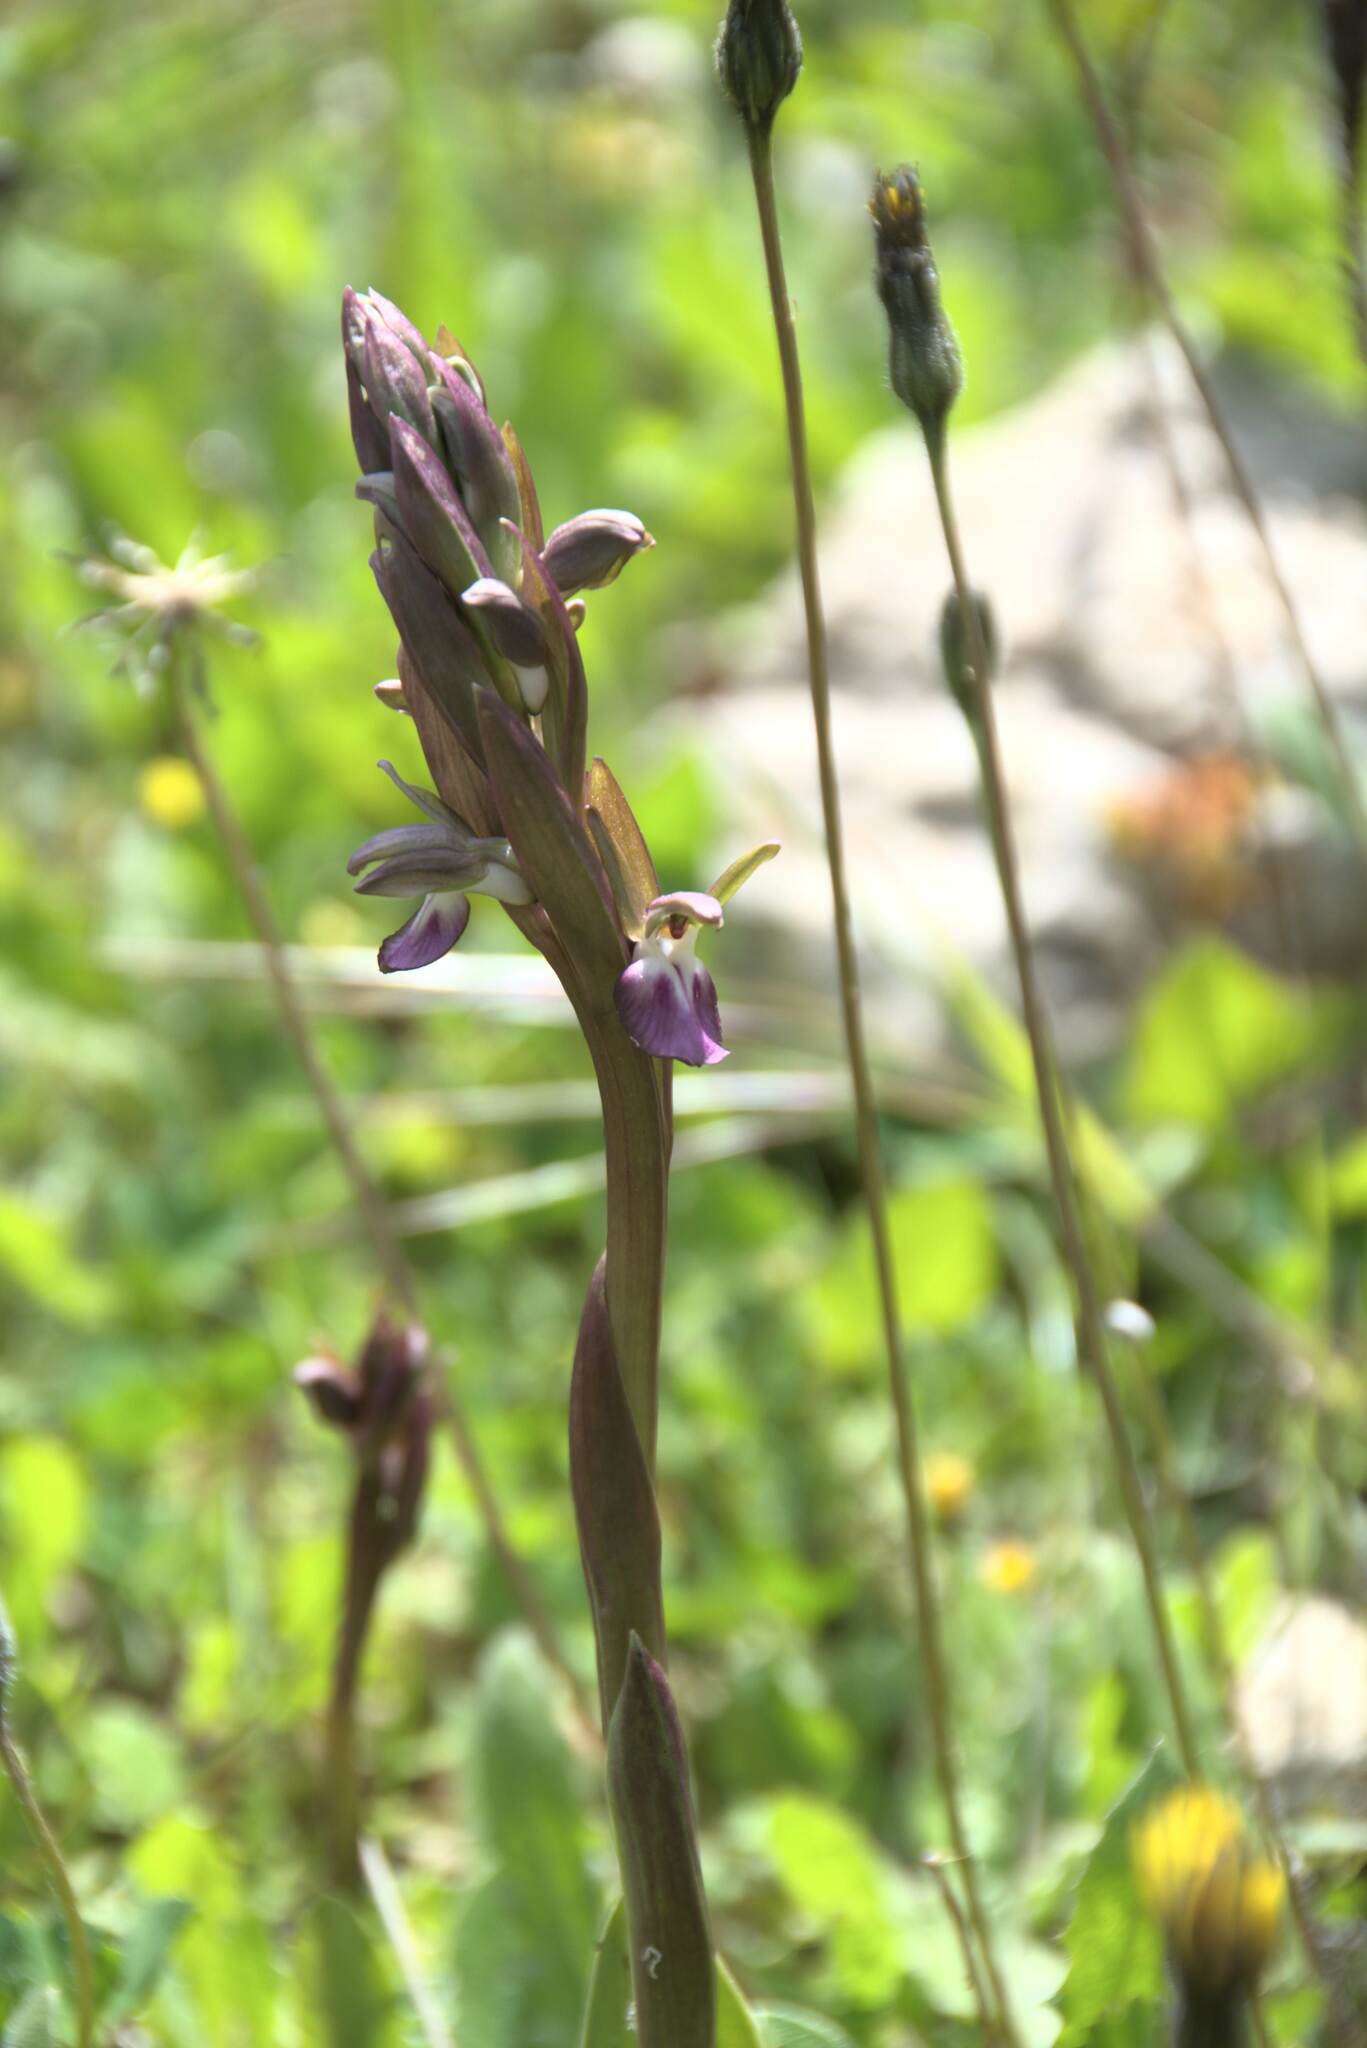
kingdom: Plantae
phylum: Tracheophyta
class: Liliopsida
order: Asparagales
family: Orchidaceae
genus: Anacamptis
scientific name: Anacamptis collina
